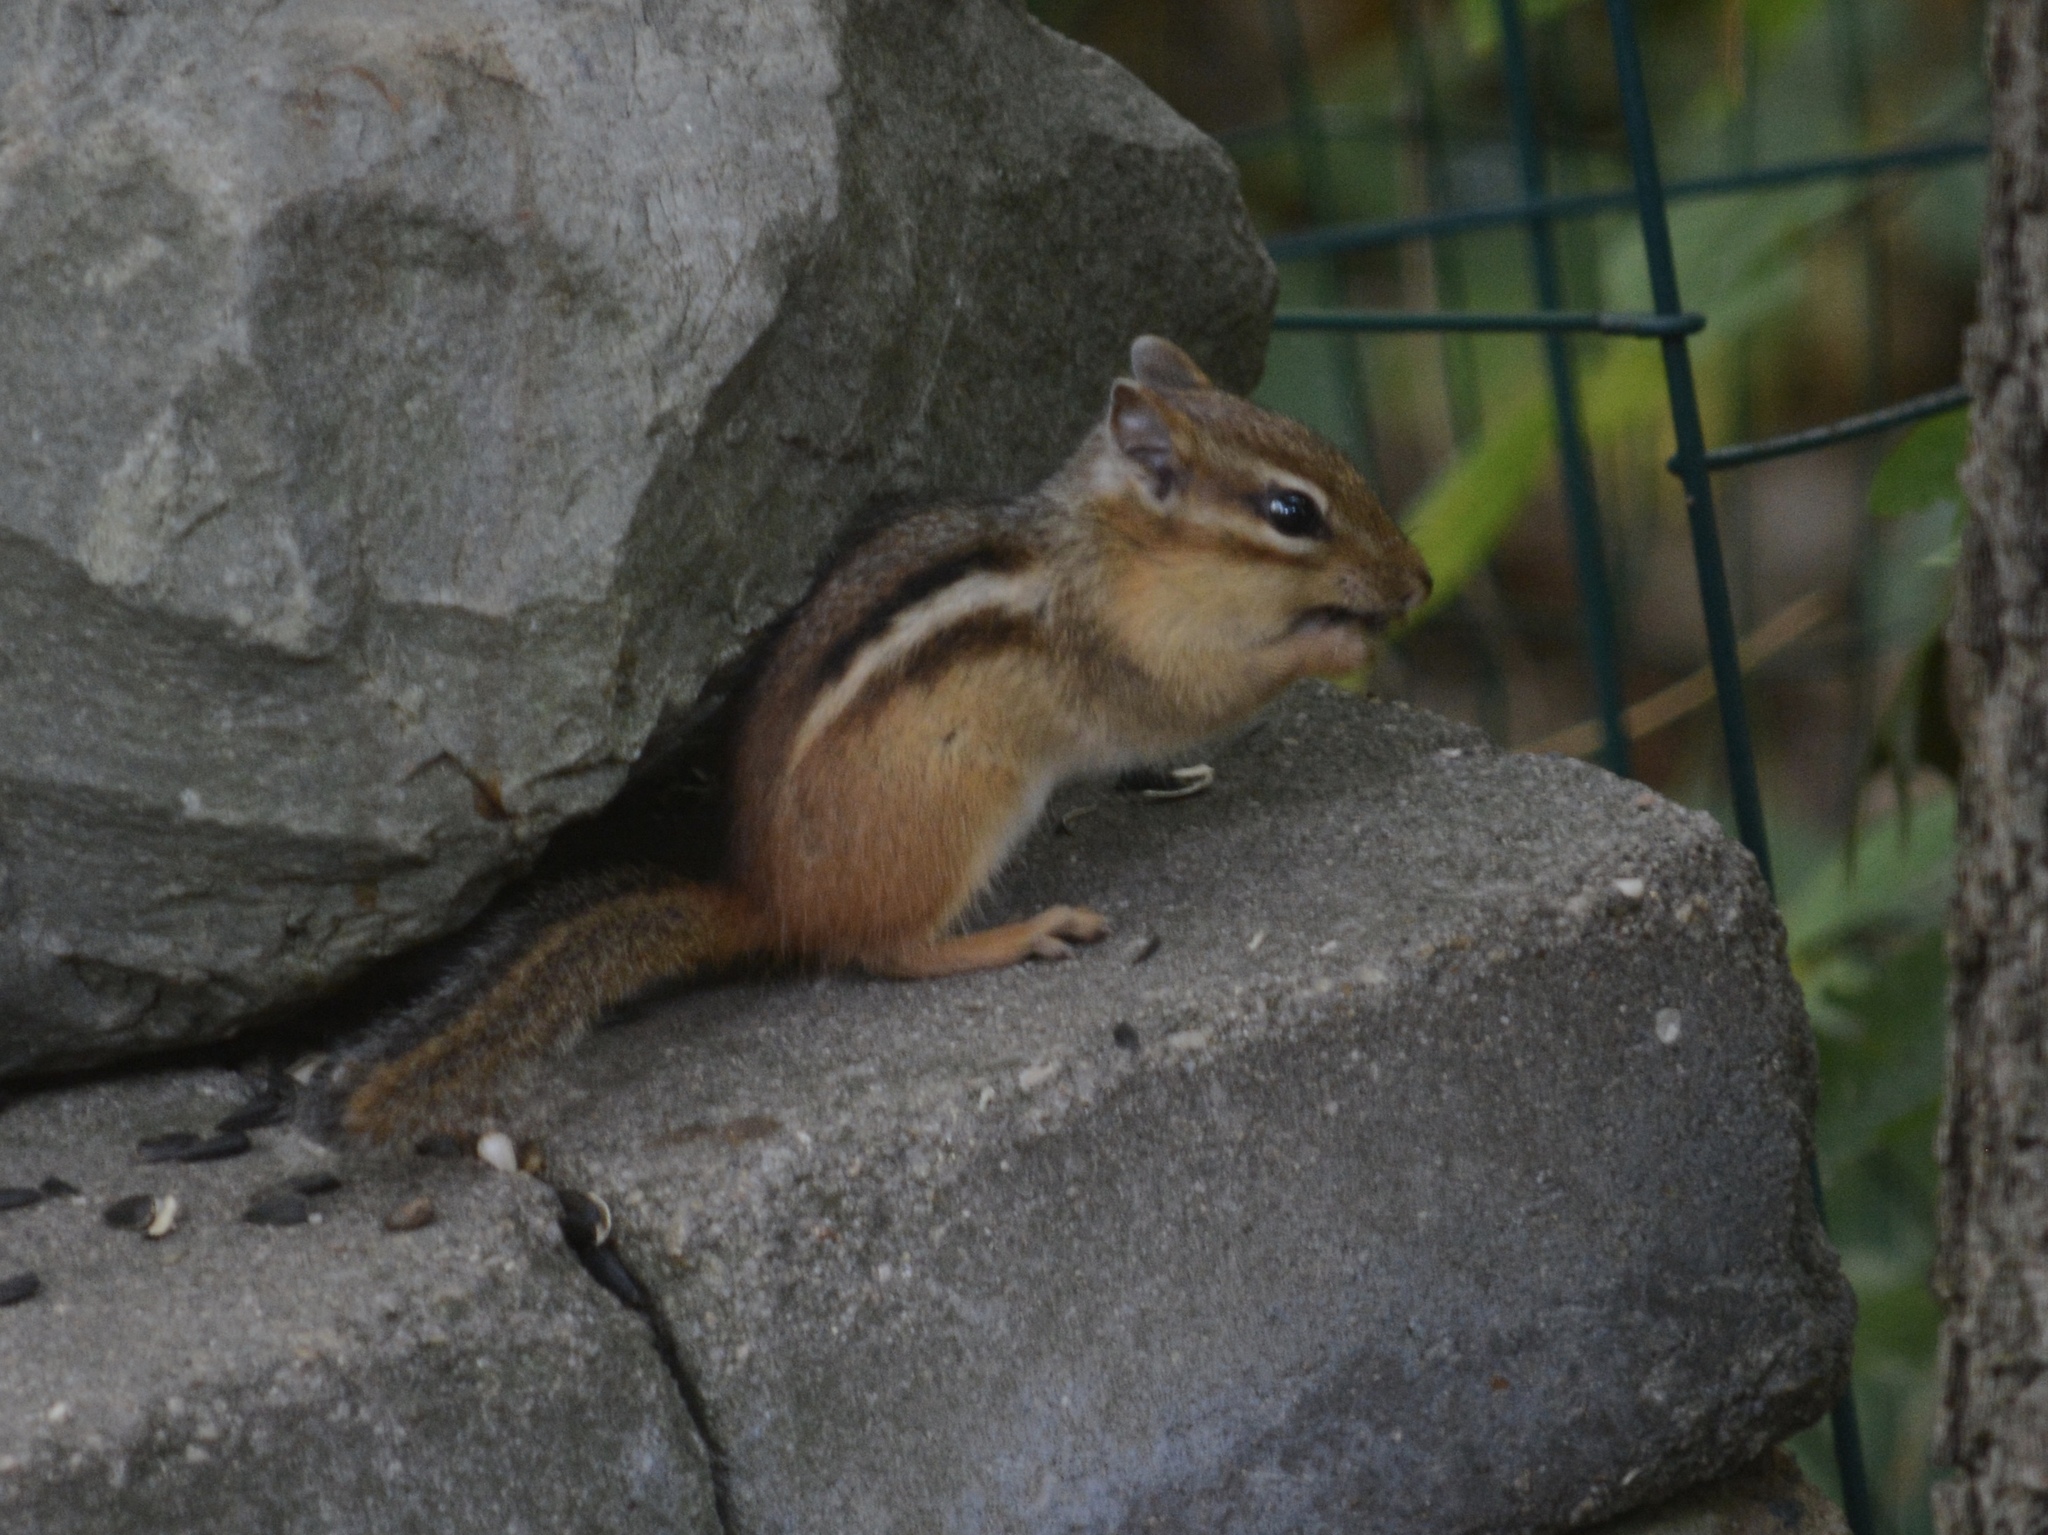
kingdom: Animalia
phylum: Chordata
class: Mammalia
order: Rodentia
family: Sciuridae
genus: Tamias
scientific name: Tamias striatus
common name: Eastern chipmunk
